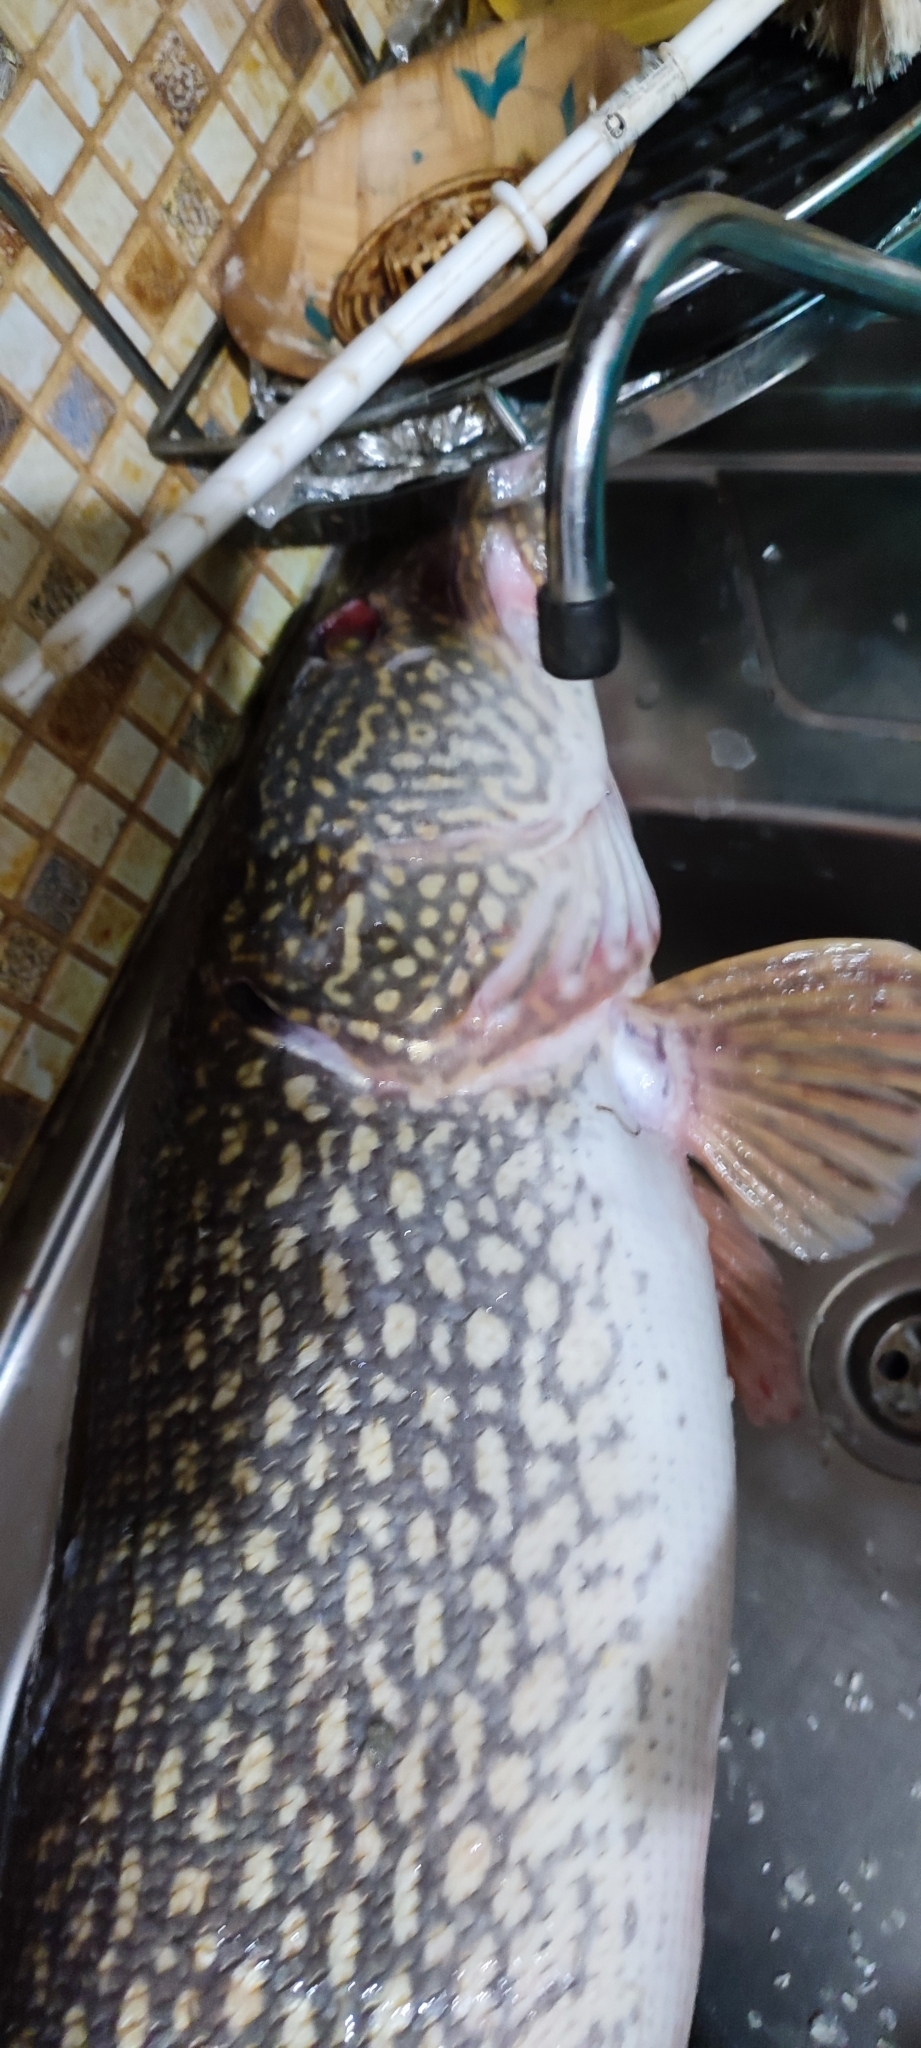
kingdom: Animalia
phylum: Chordata
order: Esociformes
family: Esocidae
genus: Esox
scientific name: Esox lucius
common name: Northern pike
